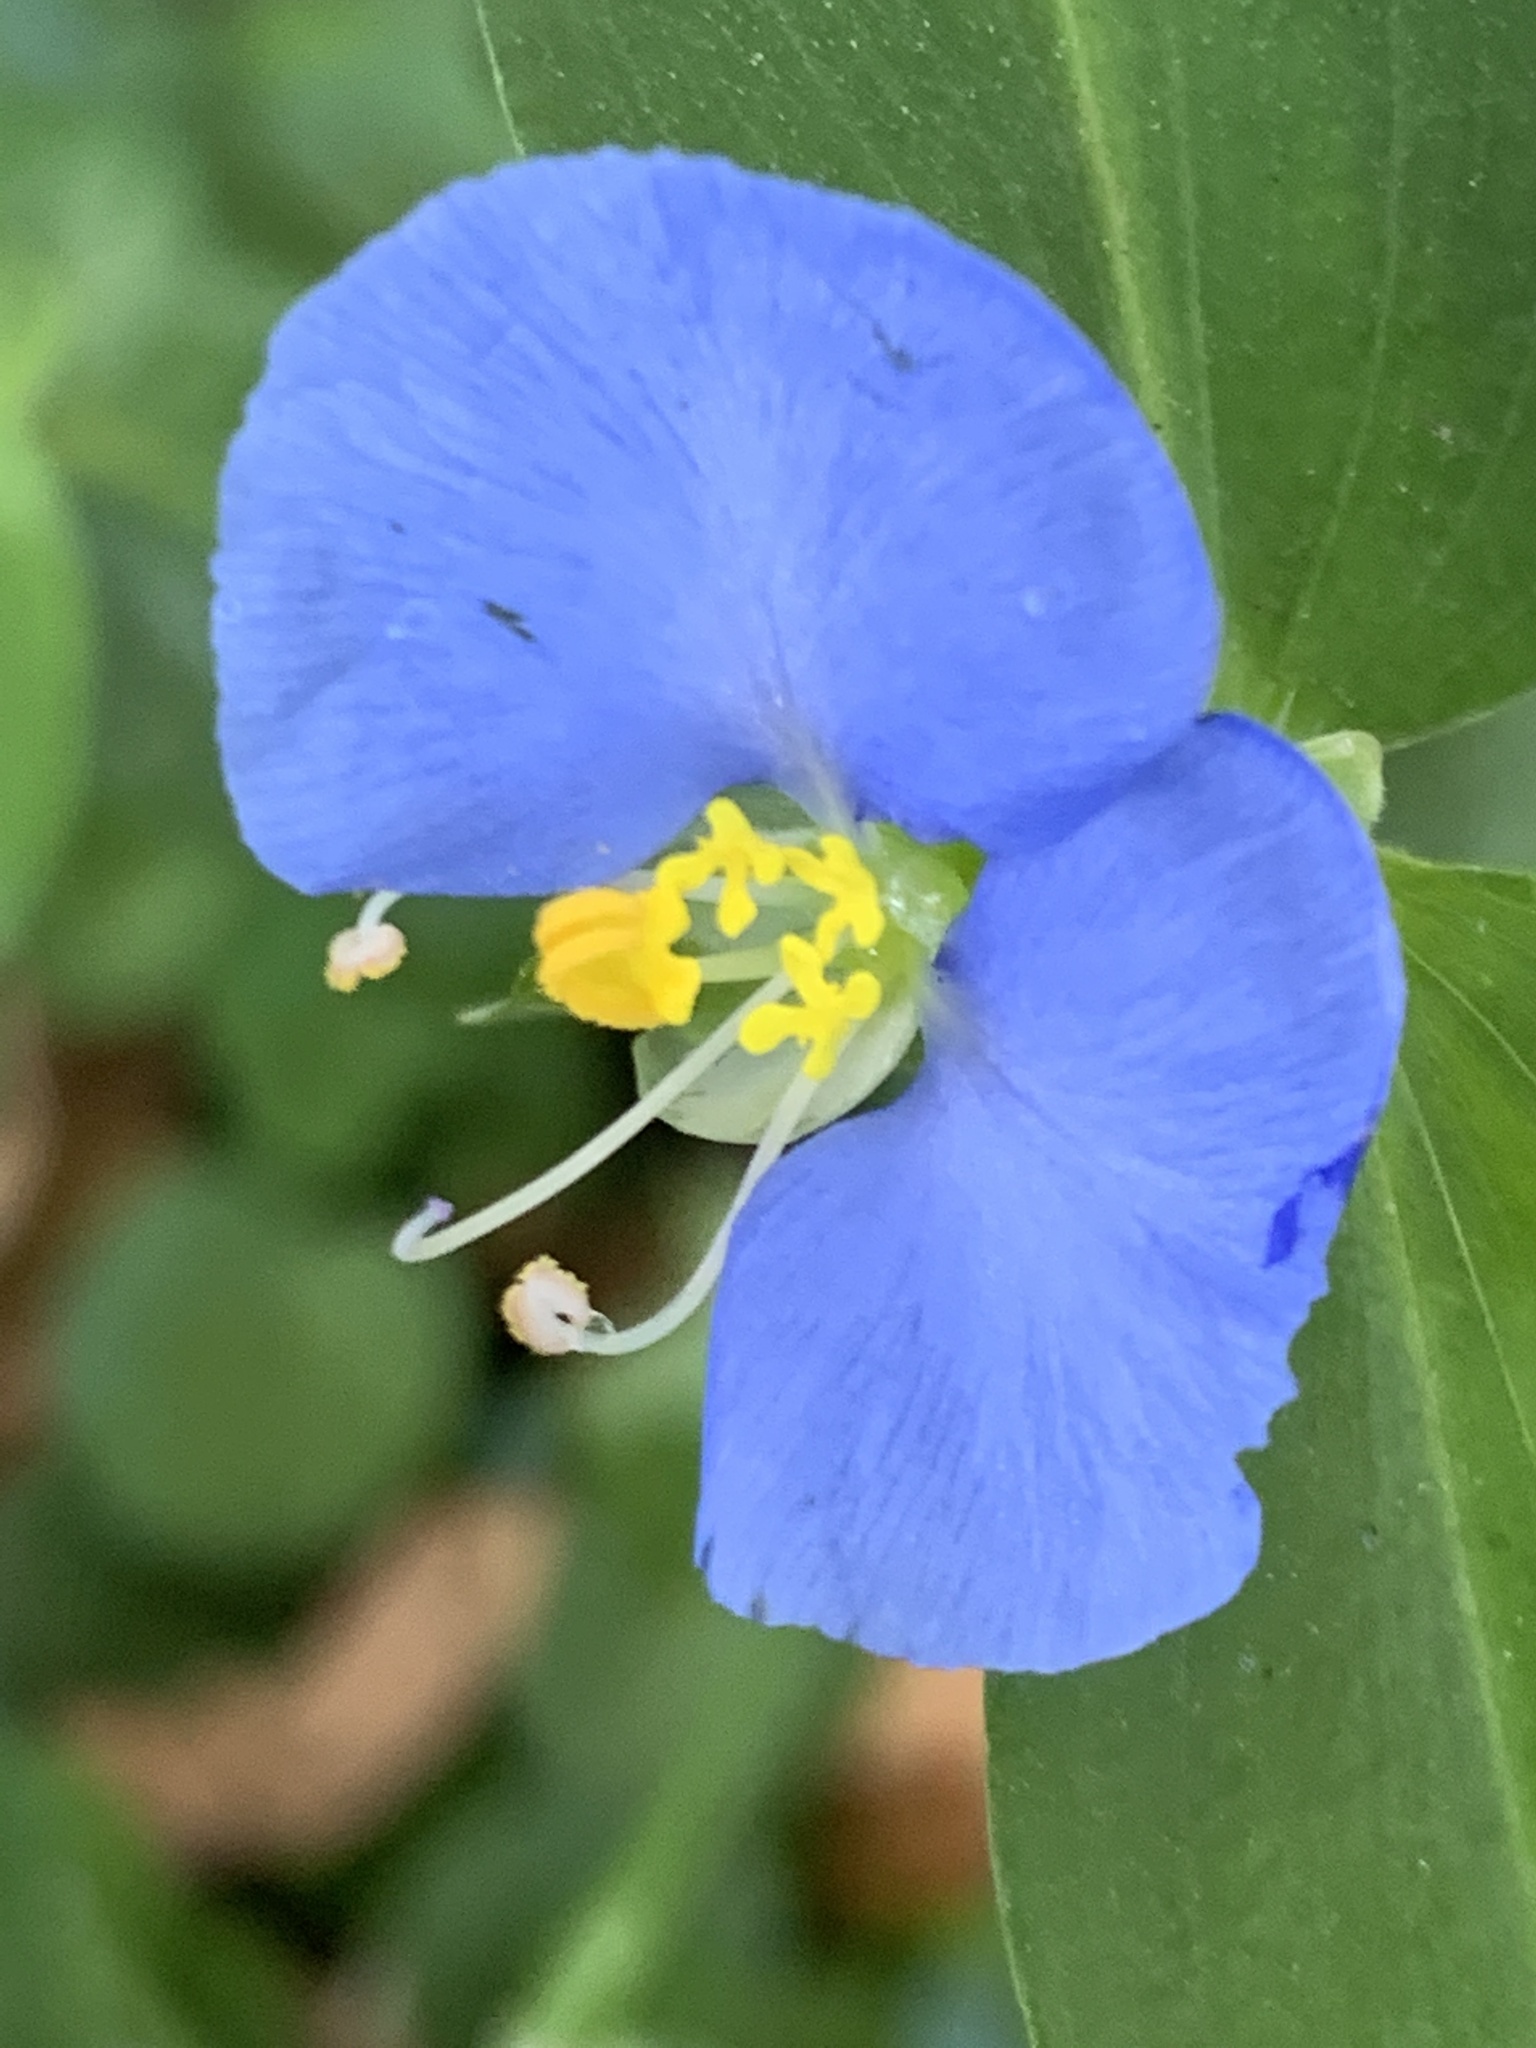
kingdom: Plantae
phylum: Tracheophyta
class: Liliopsida
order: Commelinales
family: Commelinaceae
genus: Commelina
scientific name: Commelina erecta
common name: Blousel blommetjie
